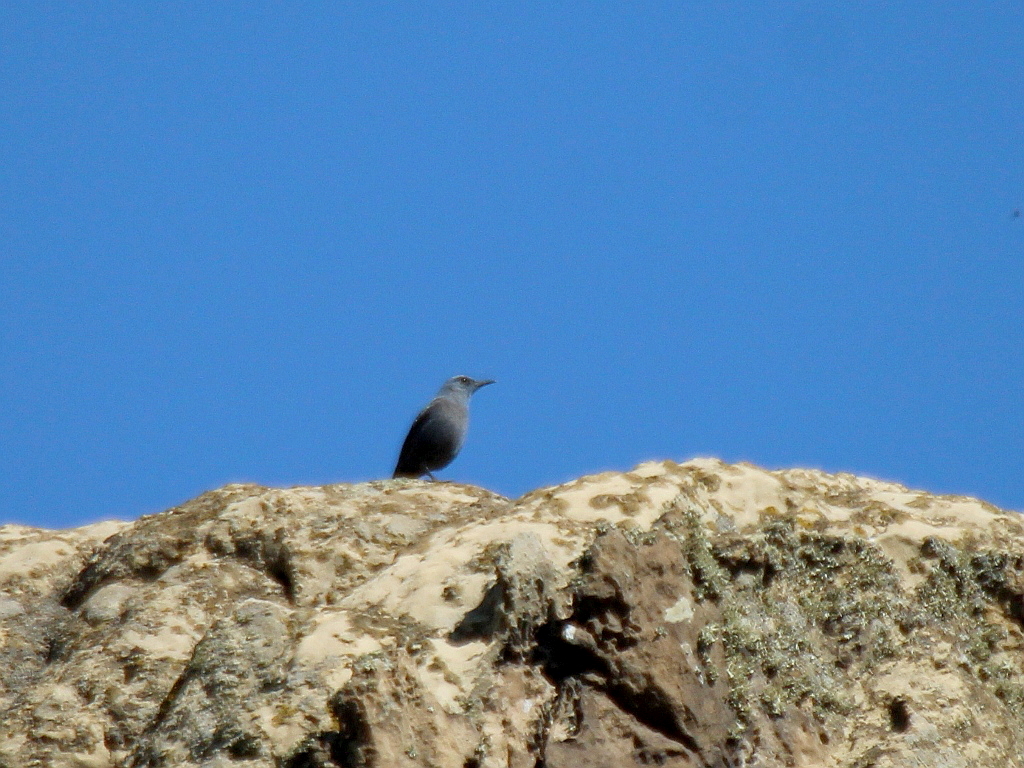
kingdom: Animalia
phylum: Chordata
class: Aves
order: Passeriformes
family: Muscicapidae
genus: Monticola
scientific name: Monticola solitarius
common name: Blue rock thrush
